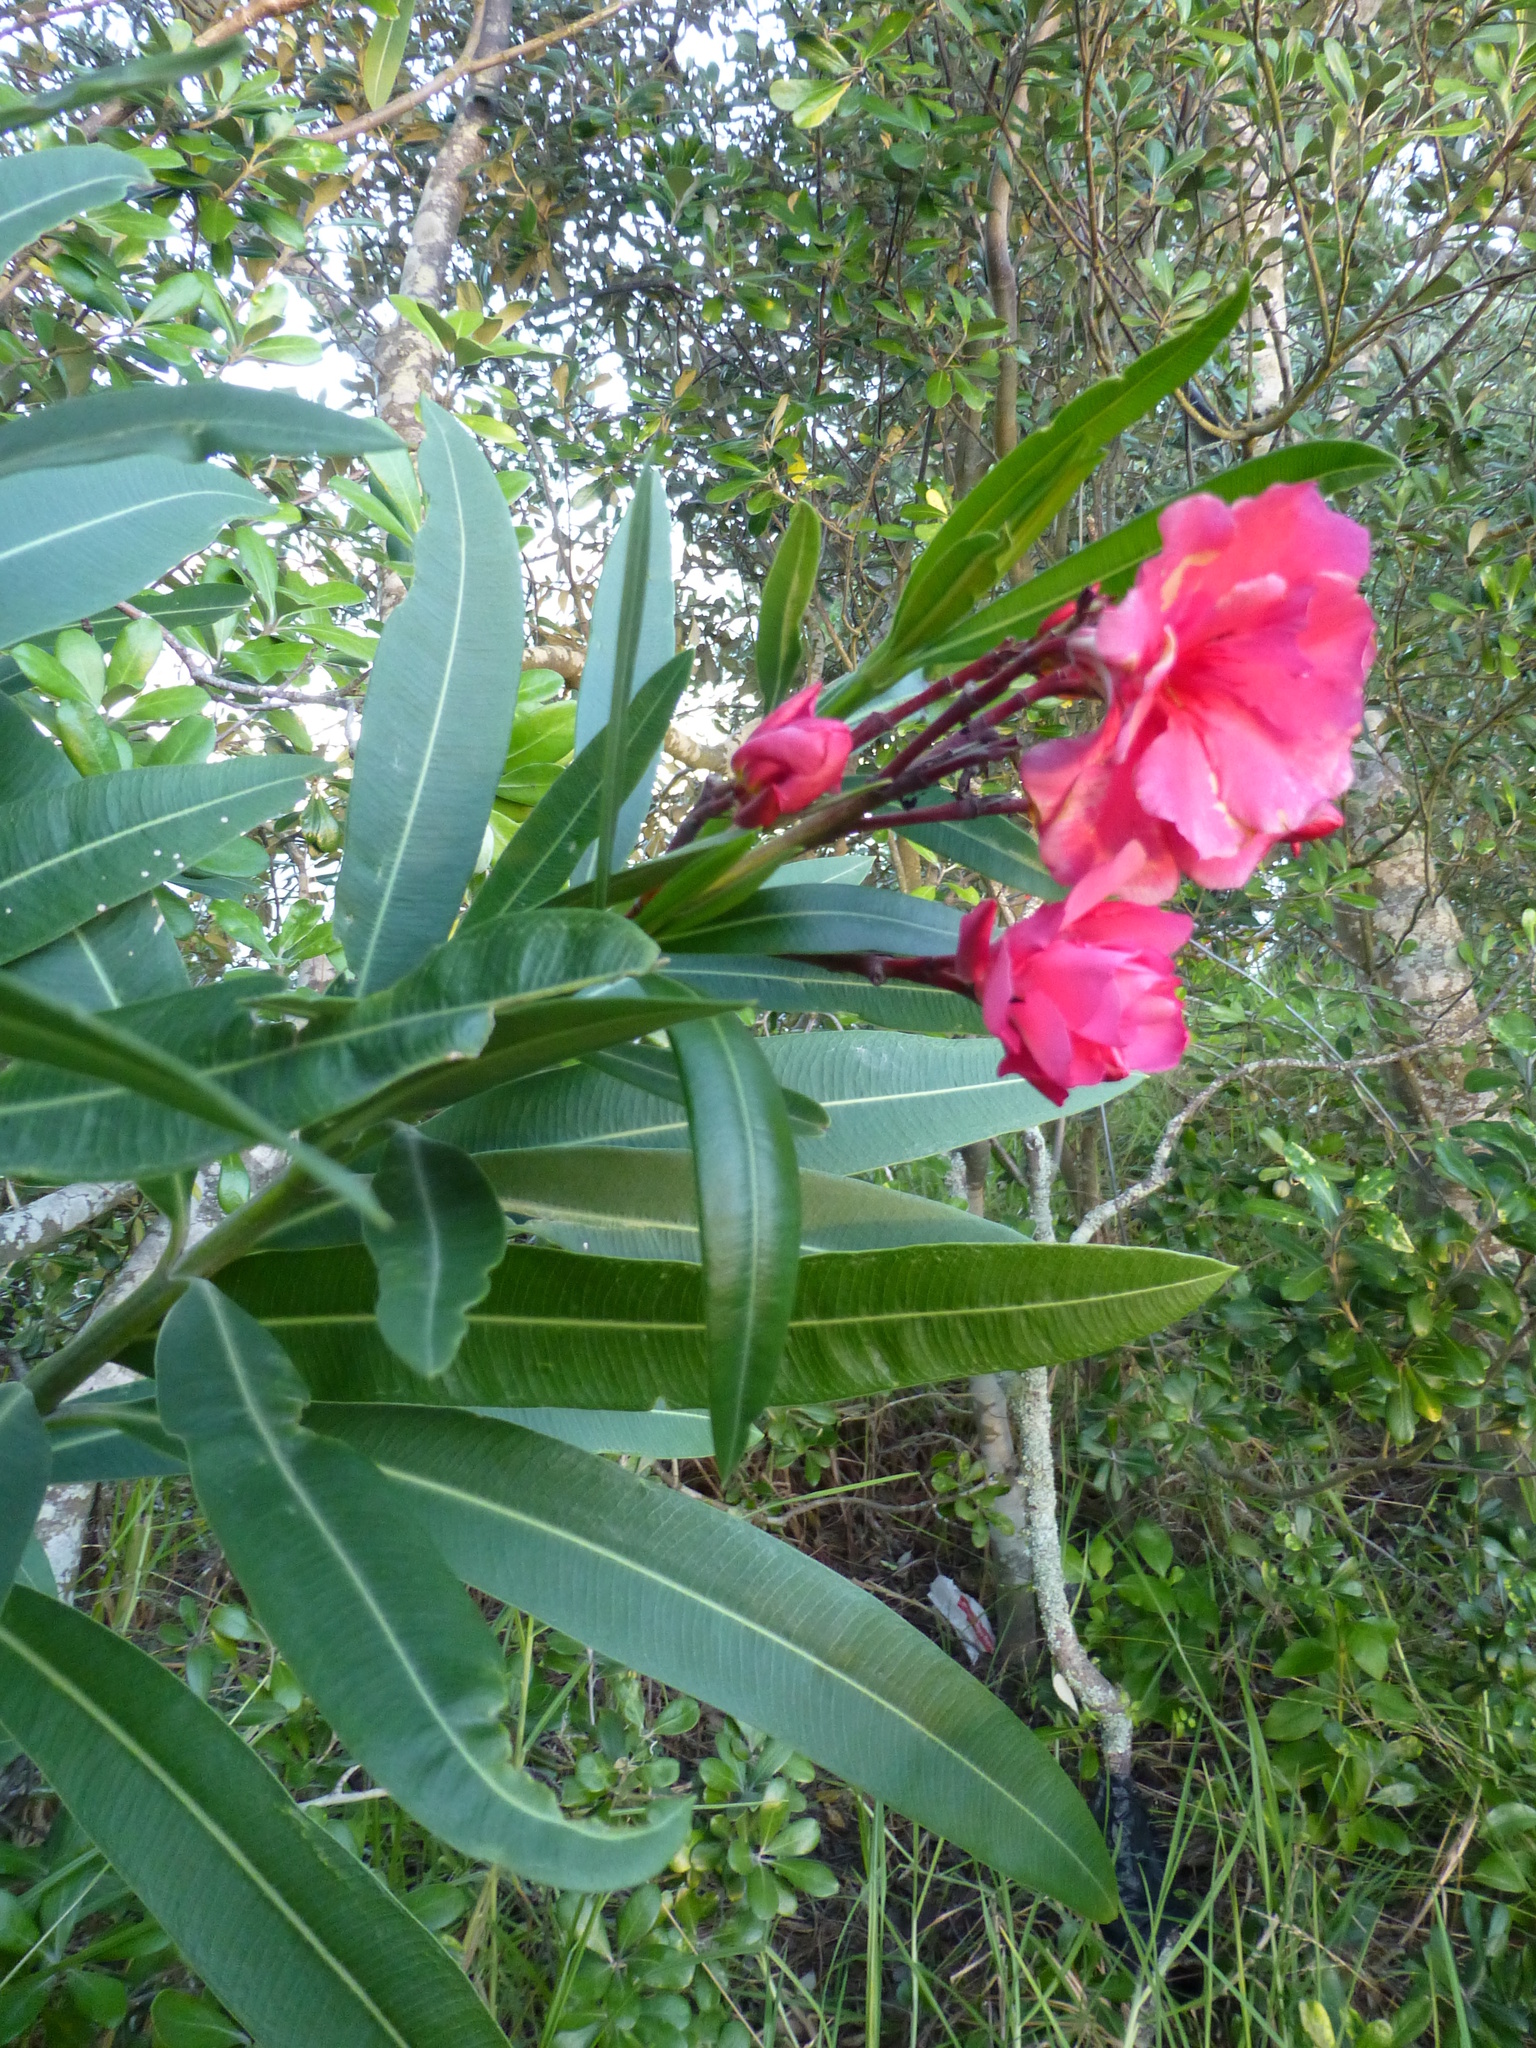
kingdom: Plantae
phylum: Tracheophyta
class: Magnoliopsida
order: Gentianales
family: Apocynaceae
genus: Nerium
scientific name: Nerium oleander
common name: Oleander
